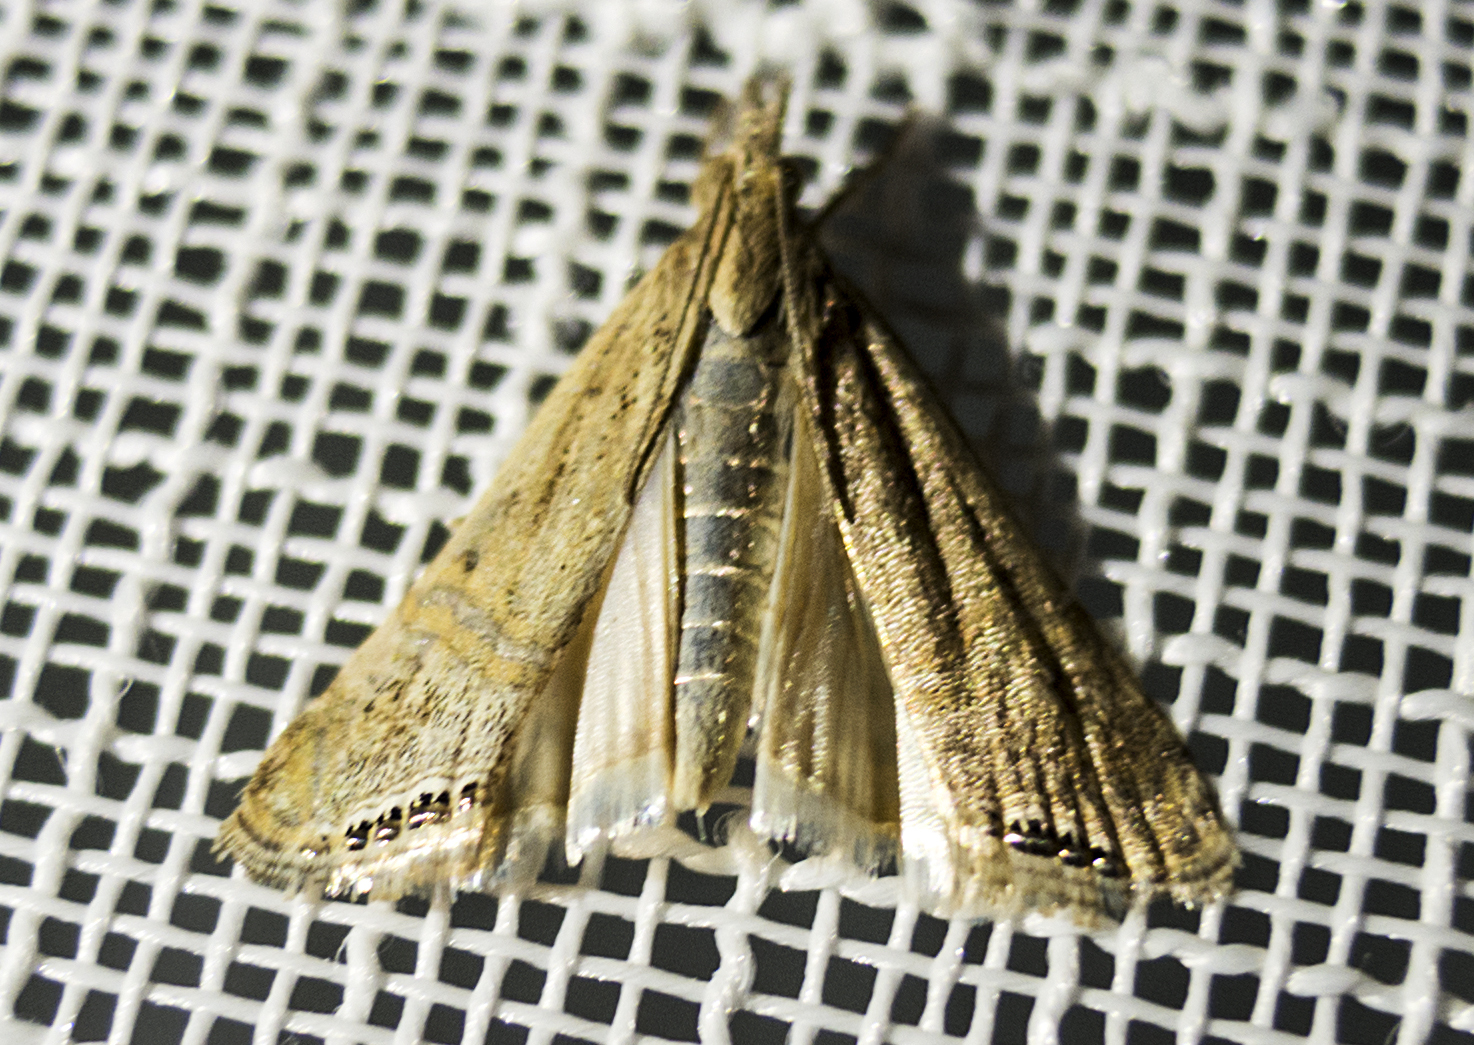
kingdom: Animalia
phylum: Arthropoda
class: Insecta
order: Lepidoptera
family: Crambidae
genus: Euchromius
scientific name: Euchromius ocellea
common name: Necklace veneer moth
